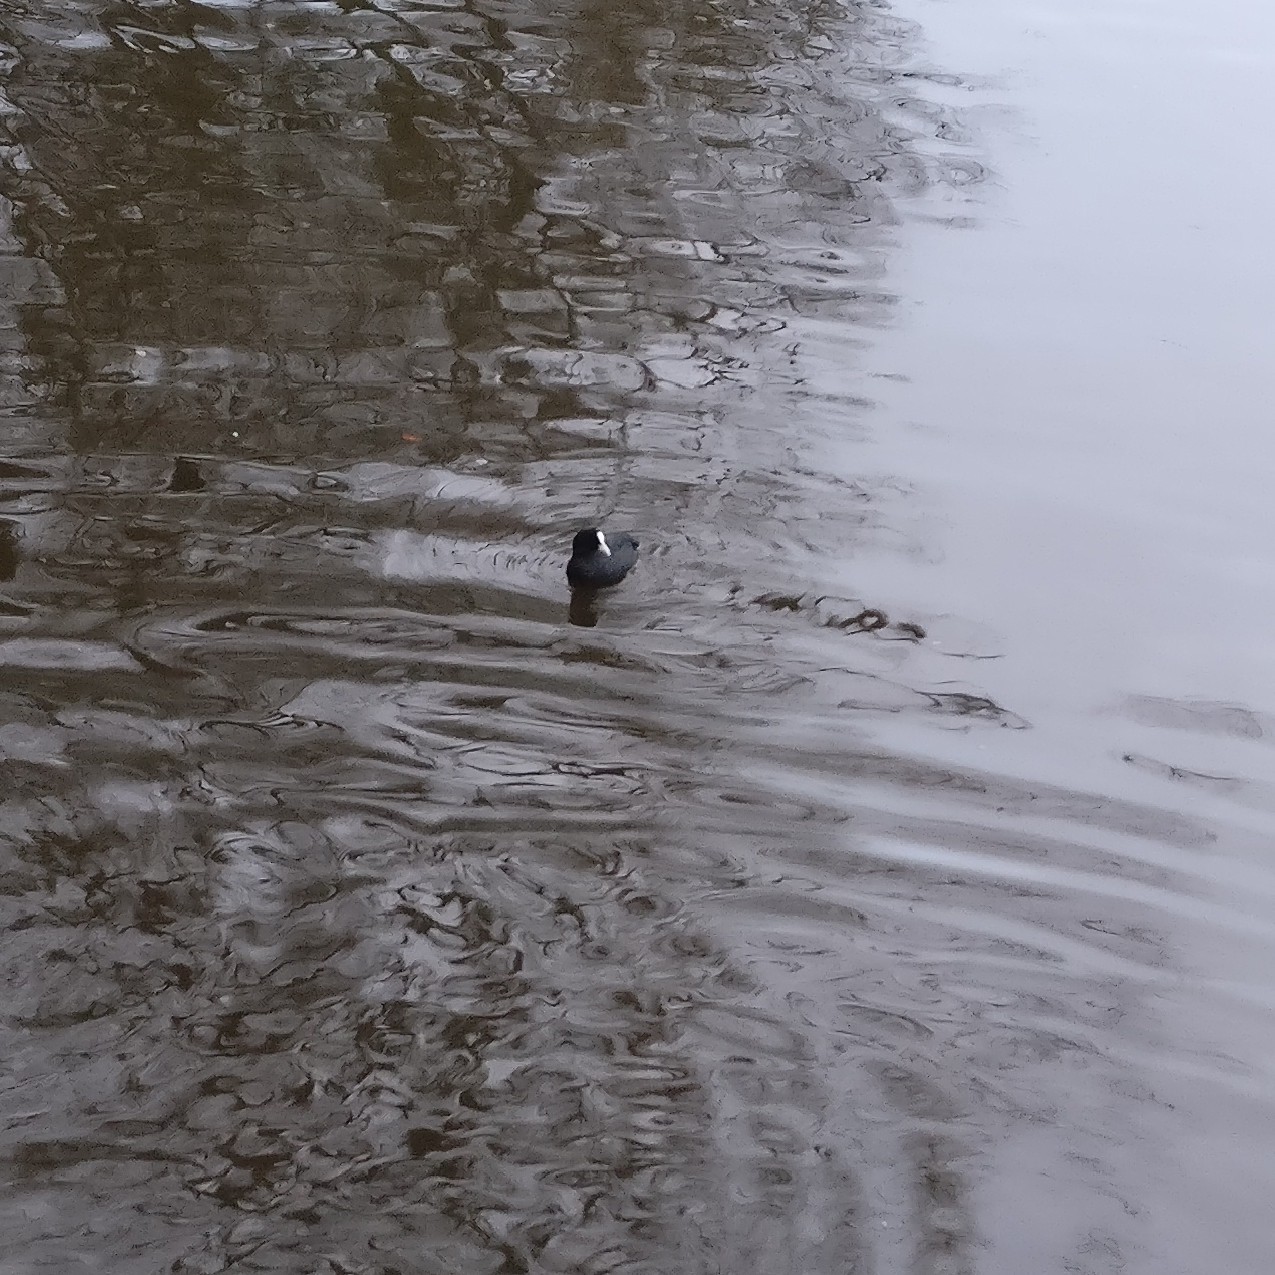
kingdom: Animalia
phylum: Chordata
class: Aves
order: Gruiformes
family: Rallidae
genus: Fulica
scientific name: Fulica atra
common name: Eurasian coot
